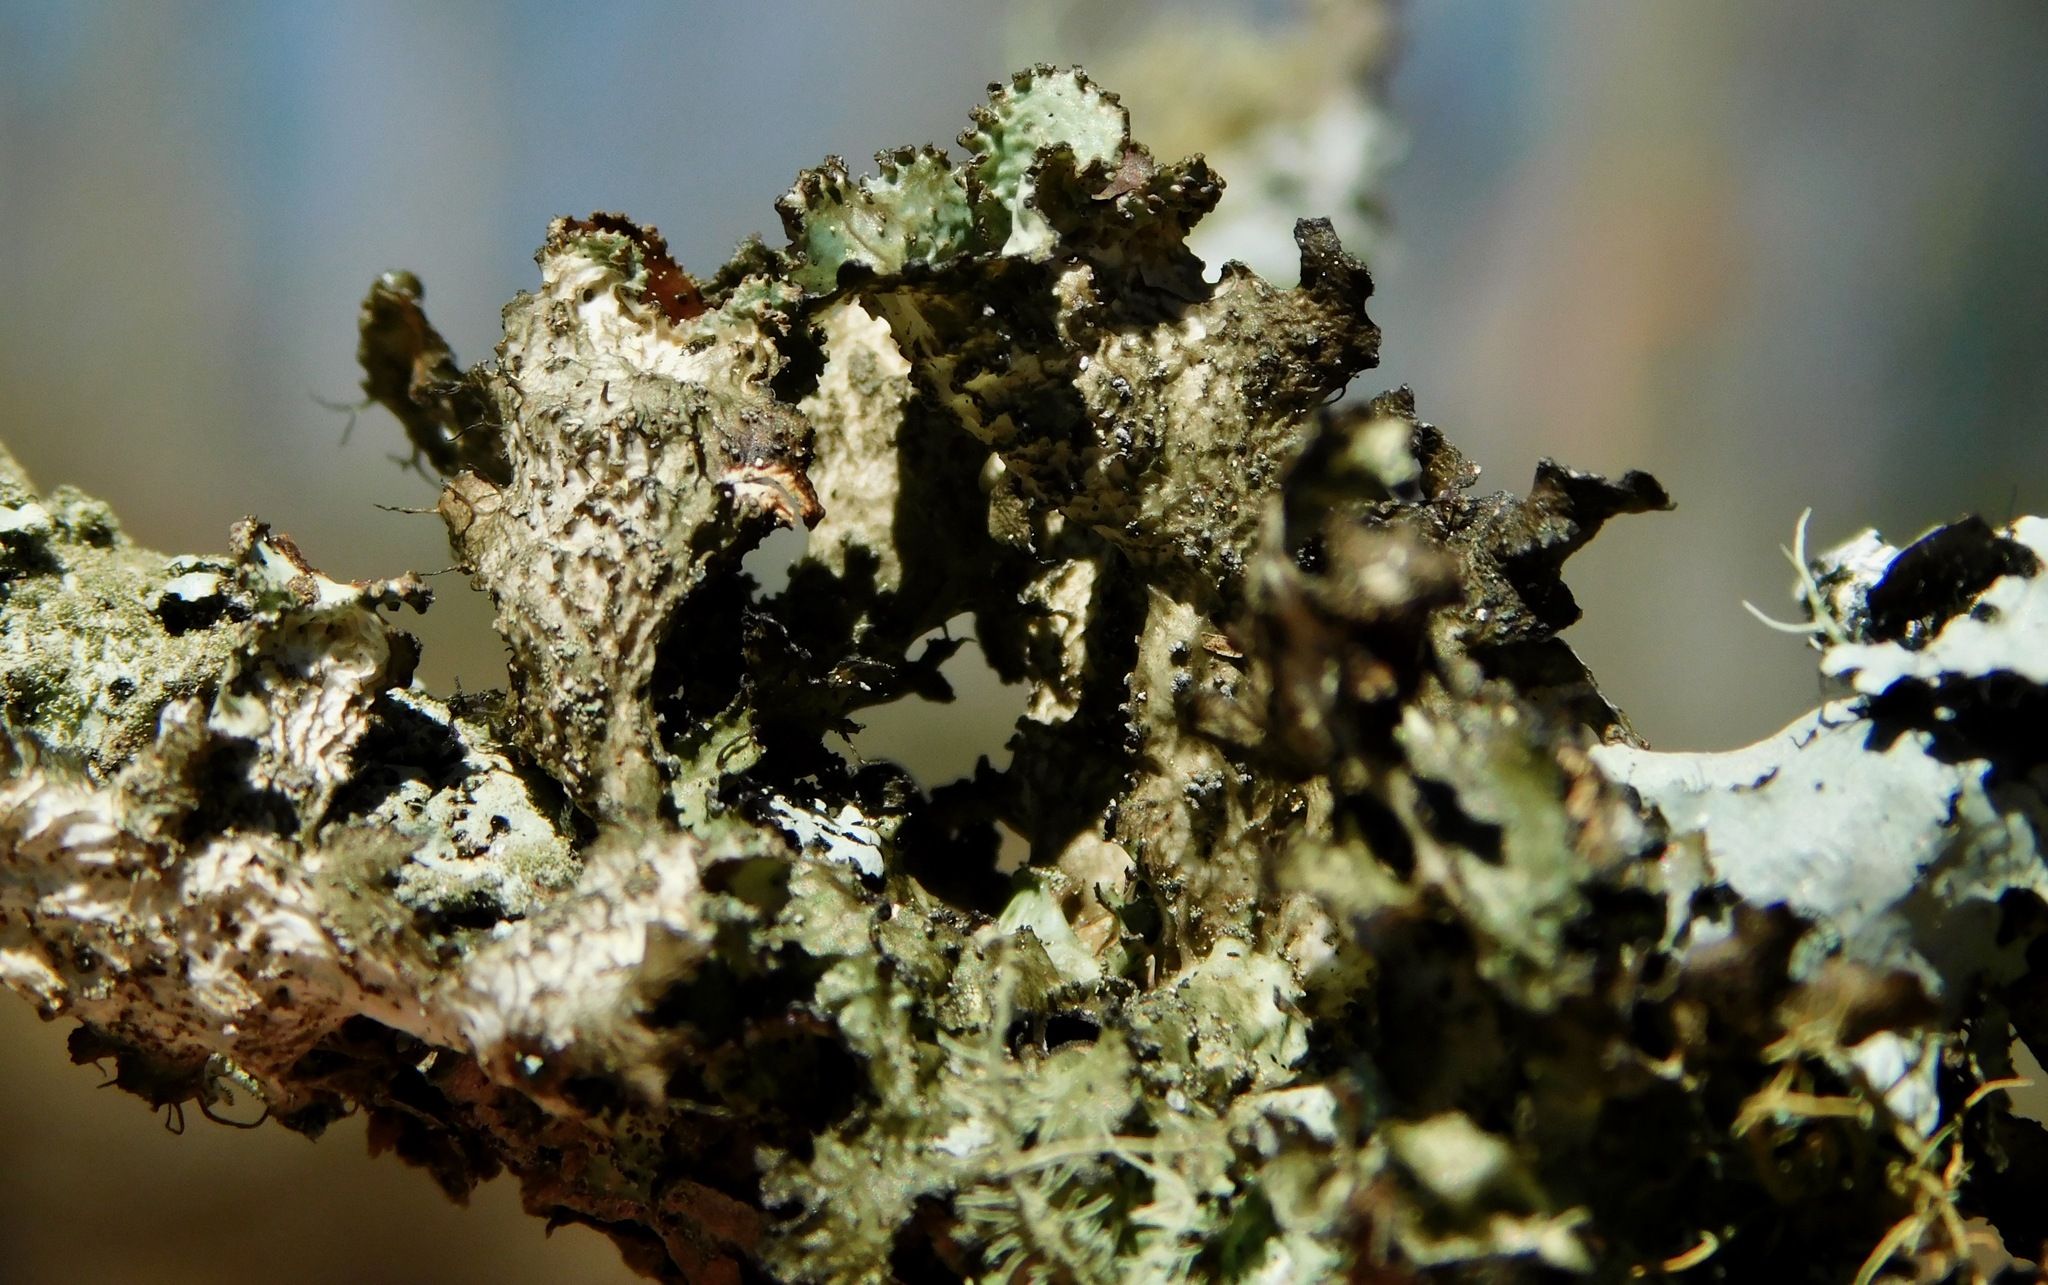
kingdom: Fungi
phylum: Ascomycota
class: Lecanoromycetes
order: Lecanorales
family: Parmeliaceae
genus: Nephromopsis
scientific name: Nephromopsis americana
